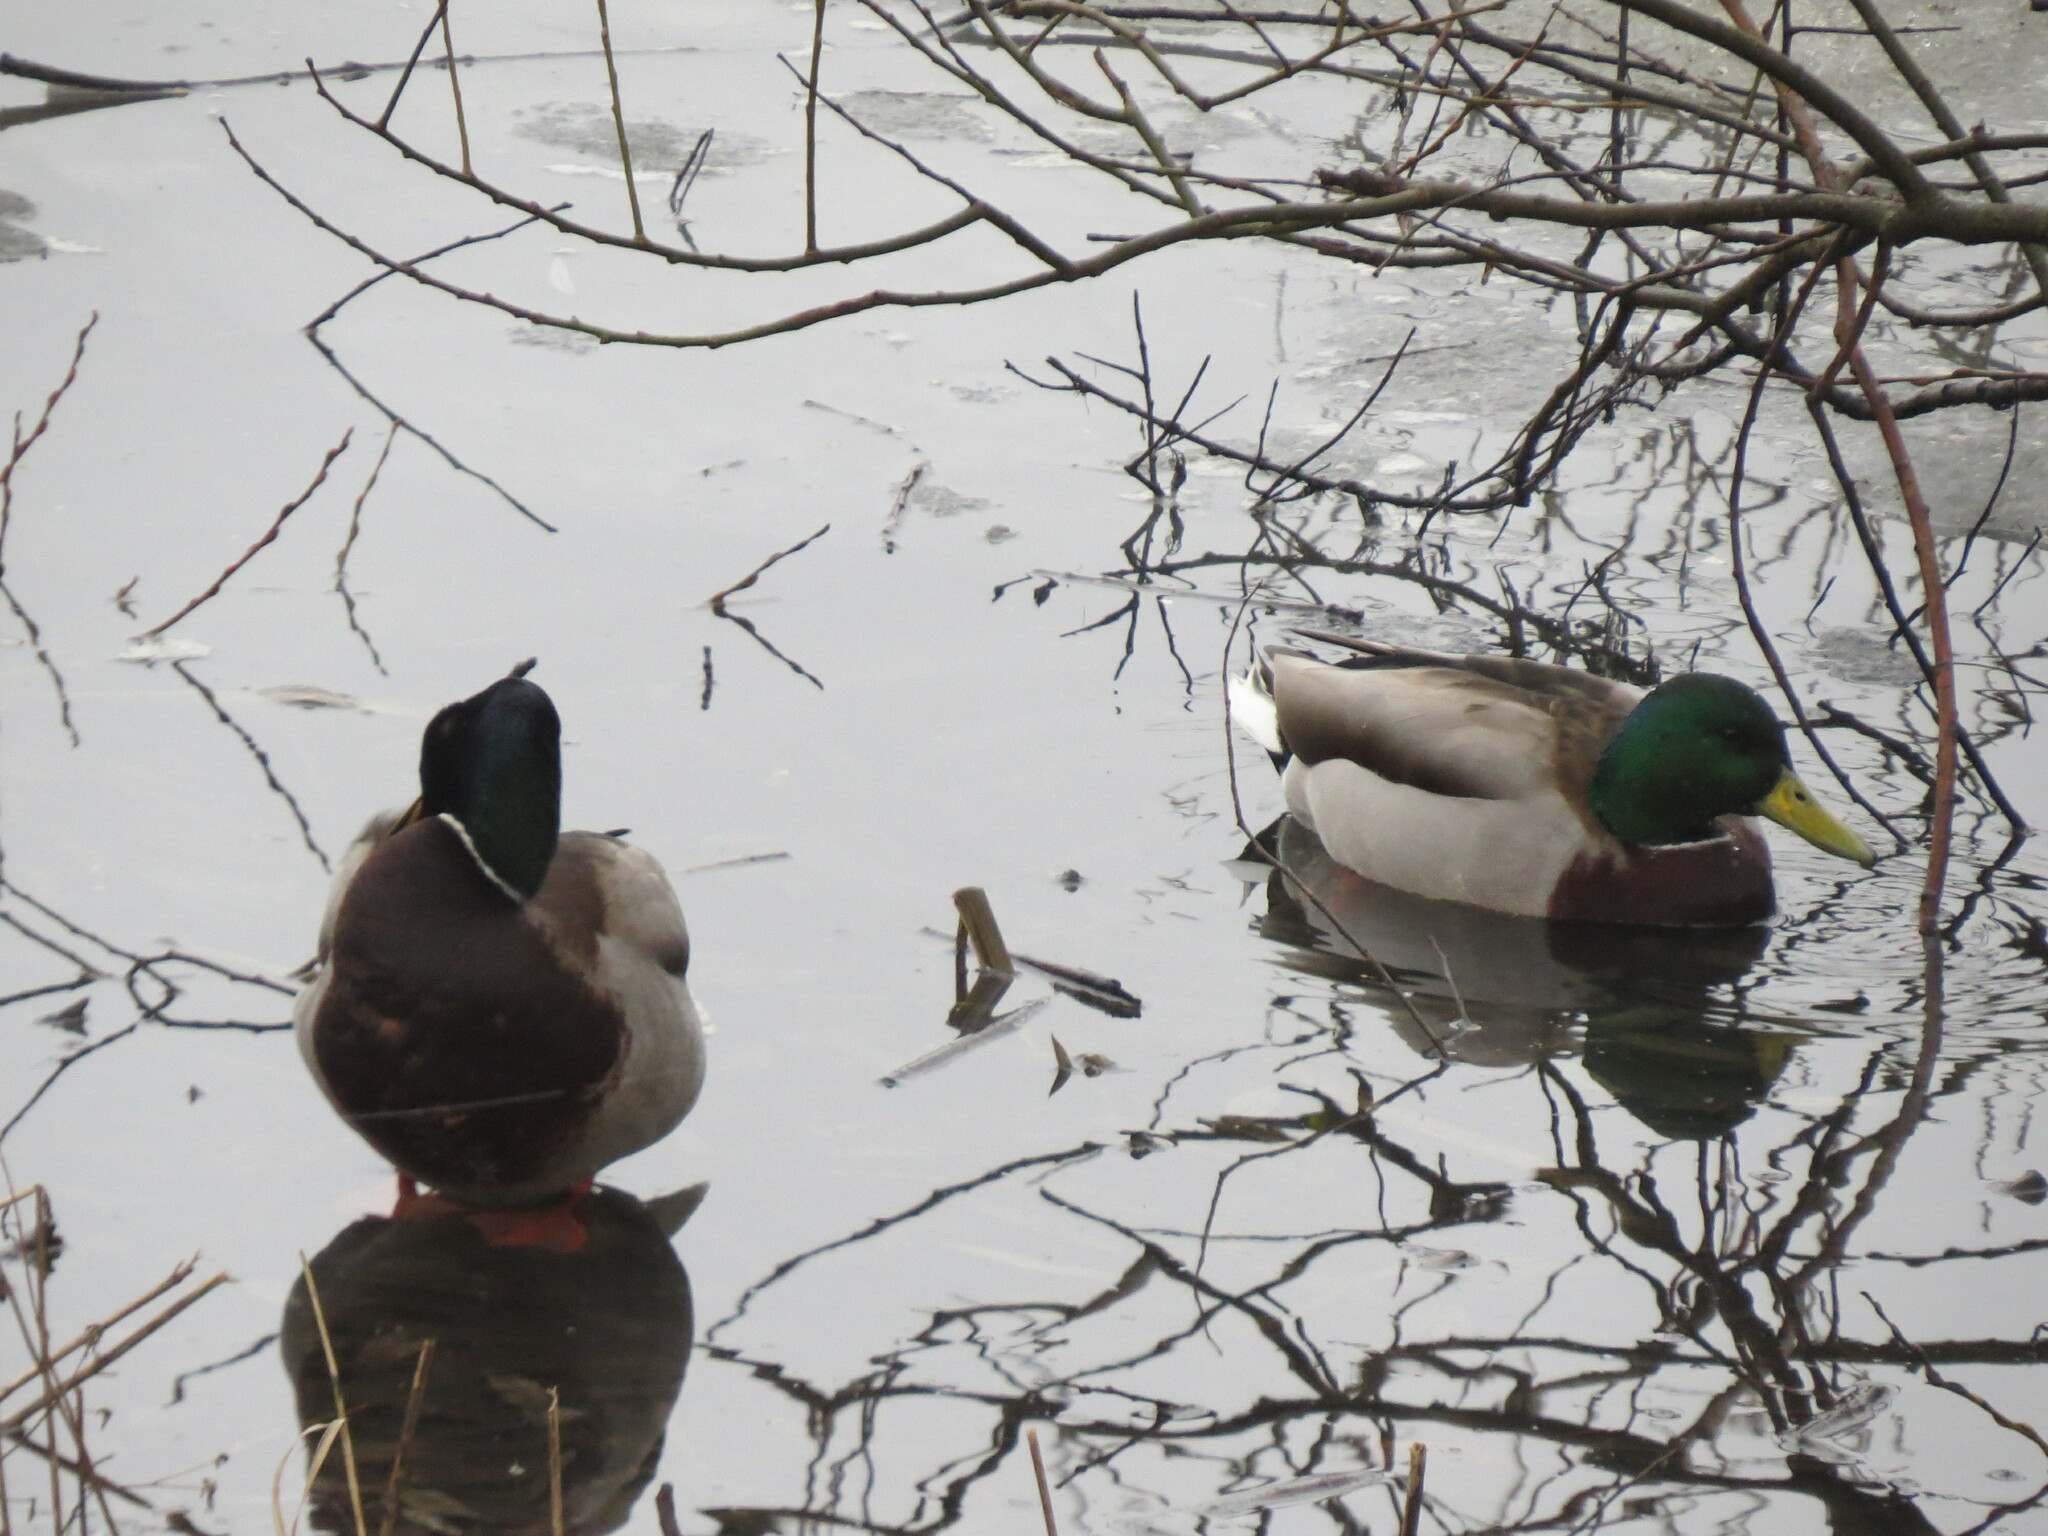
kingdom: Animalia
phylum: Chordata
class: Aves
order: Anseriformes
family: Anatidae
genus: Anas
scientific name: Anas platyrhynchos
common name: Mallard
